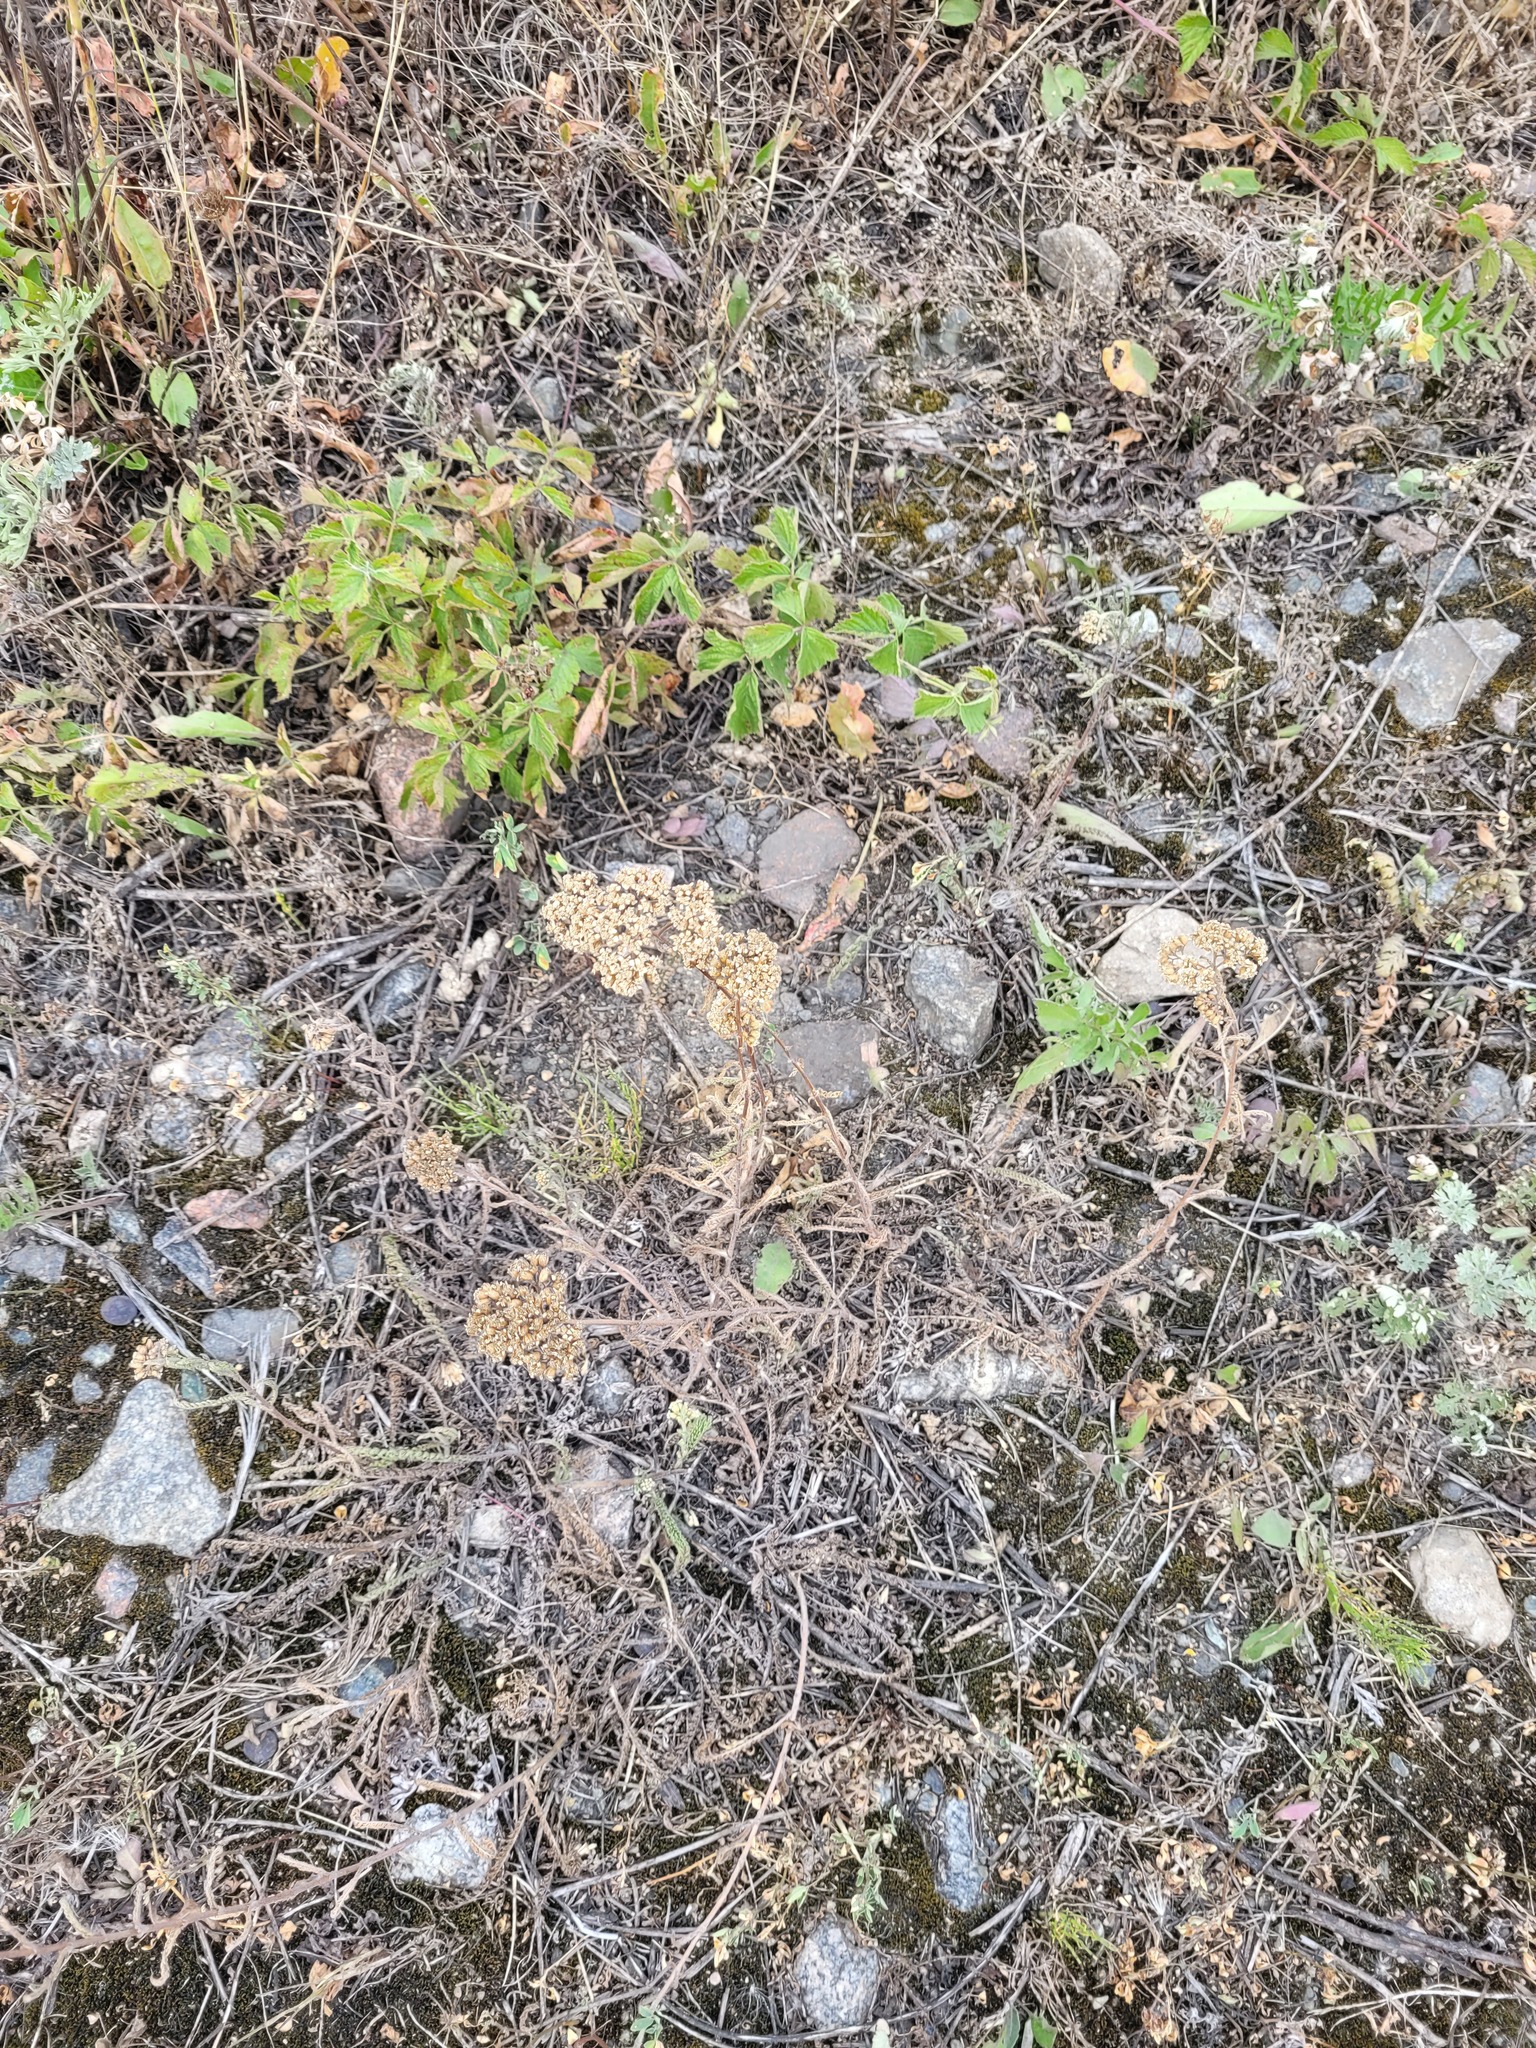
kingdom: Plantae
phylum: Tracheophyta
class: Magnoliopsida
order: Asterales
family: Asteraceae
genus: Achillea
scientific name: Achillea millefolium
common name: Yarrow
